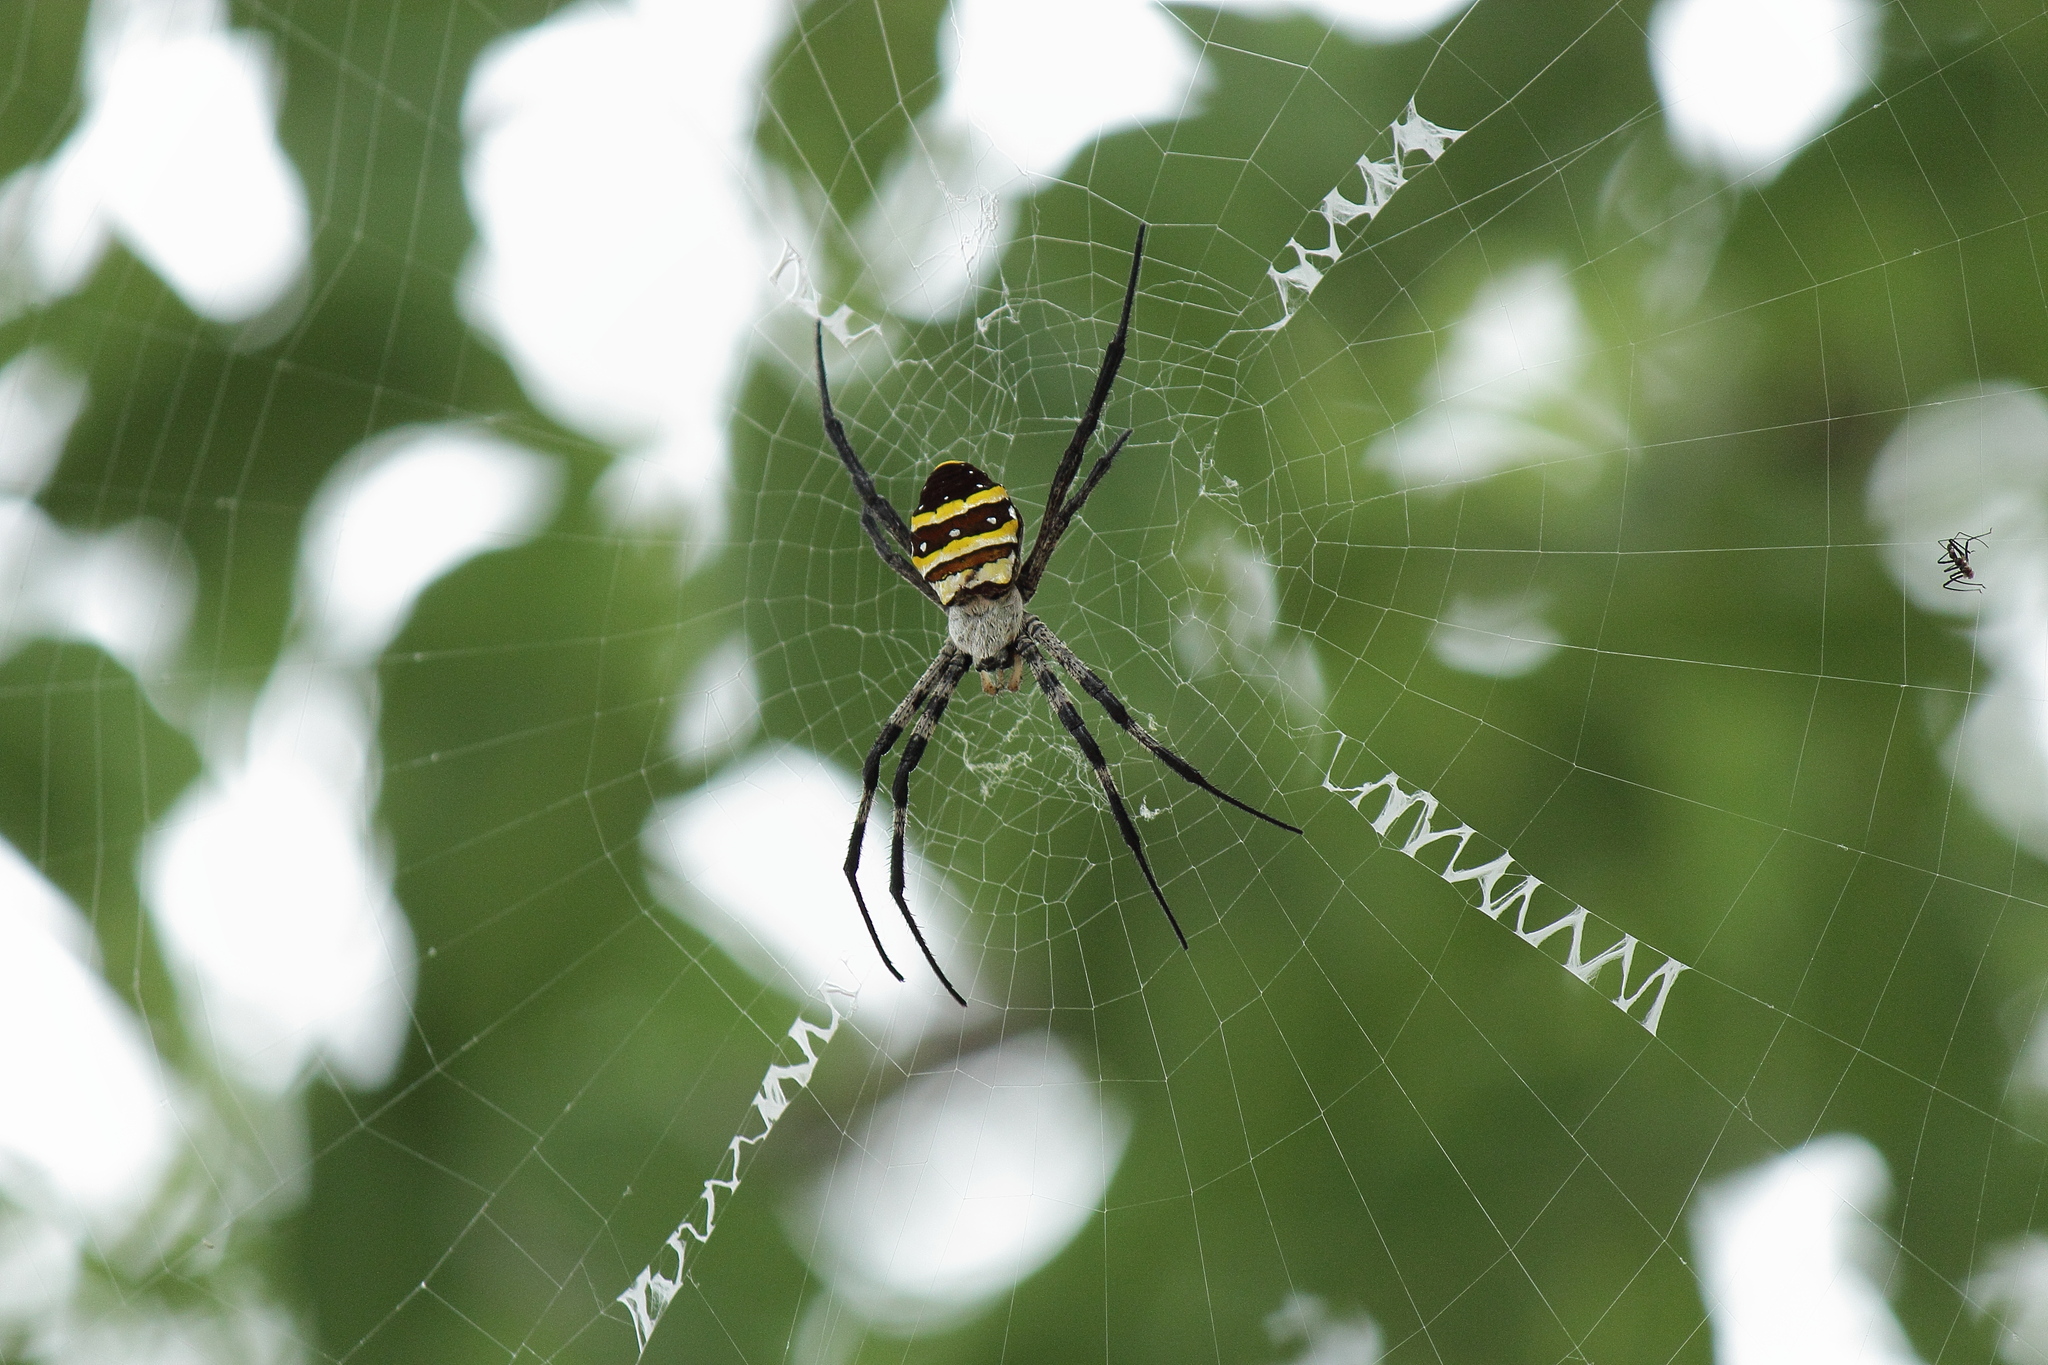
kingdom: Animalia
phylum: Arthropoda
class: Arachnida
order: Araneae
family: Araneidae
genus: Argiope
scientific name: Argiope amoena
